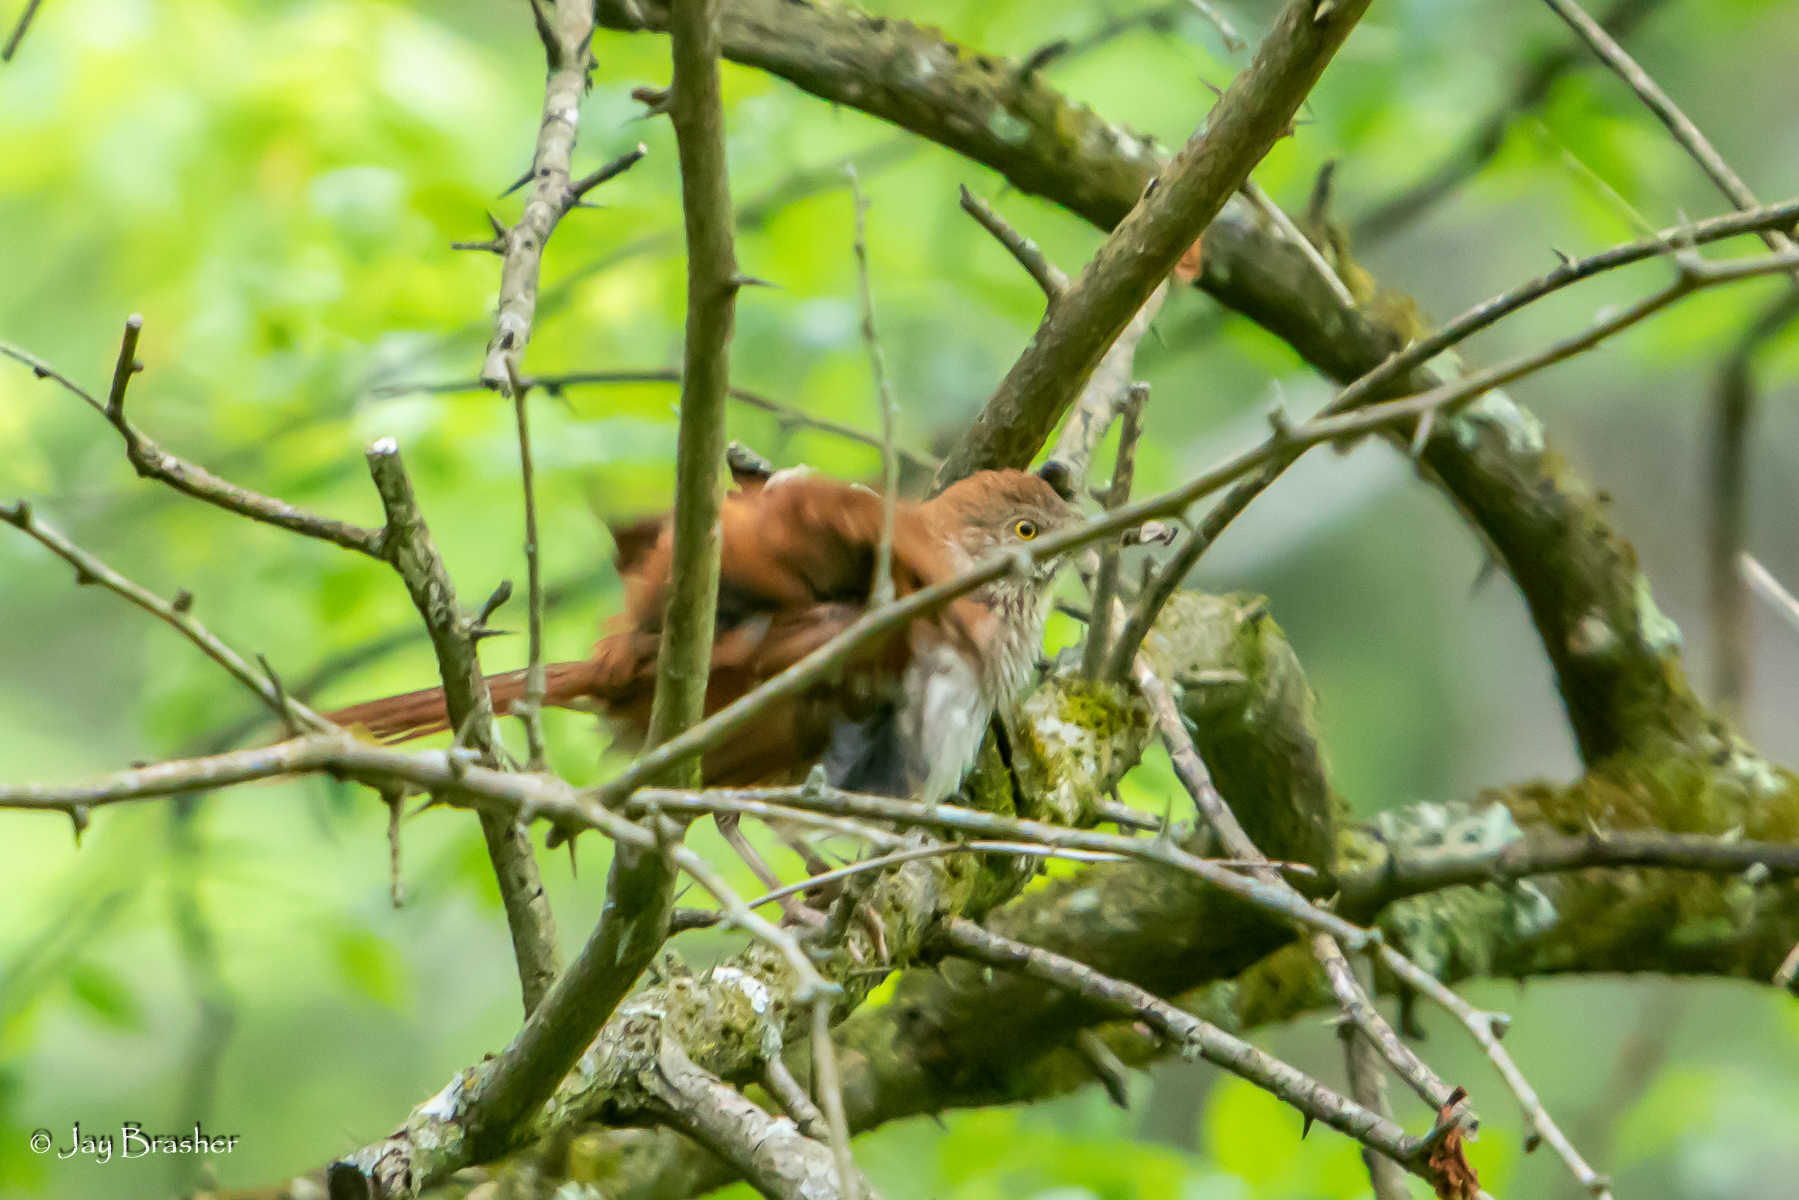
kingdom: Animalia
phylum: Chordata
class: Aves
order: Passeriformes
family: Mimidae
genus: Toxostoma
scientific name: Toxostoma rufum
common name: Brown thrasher
